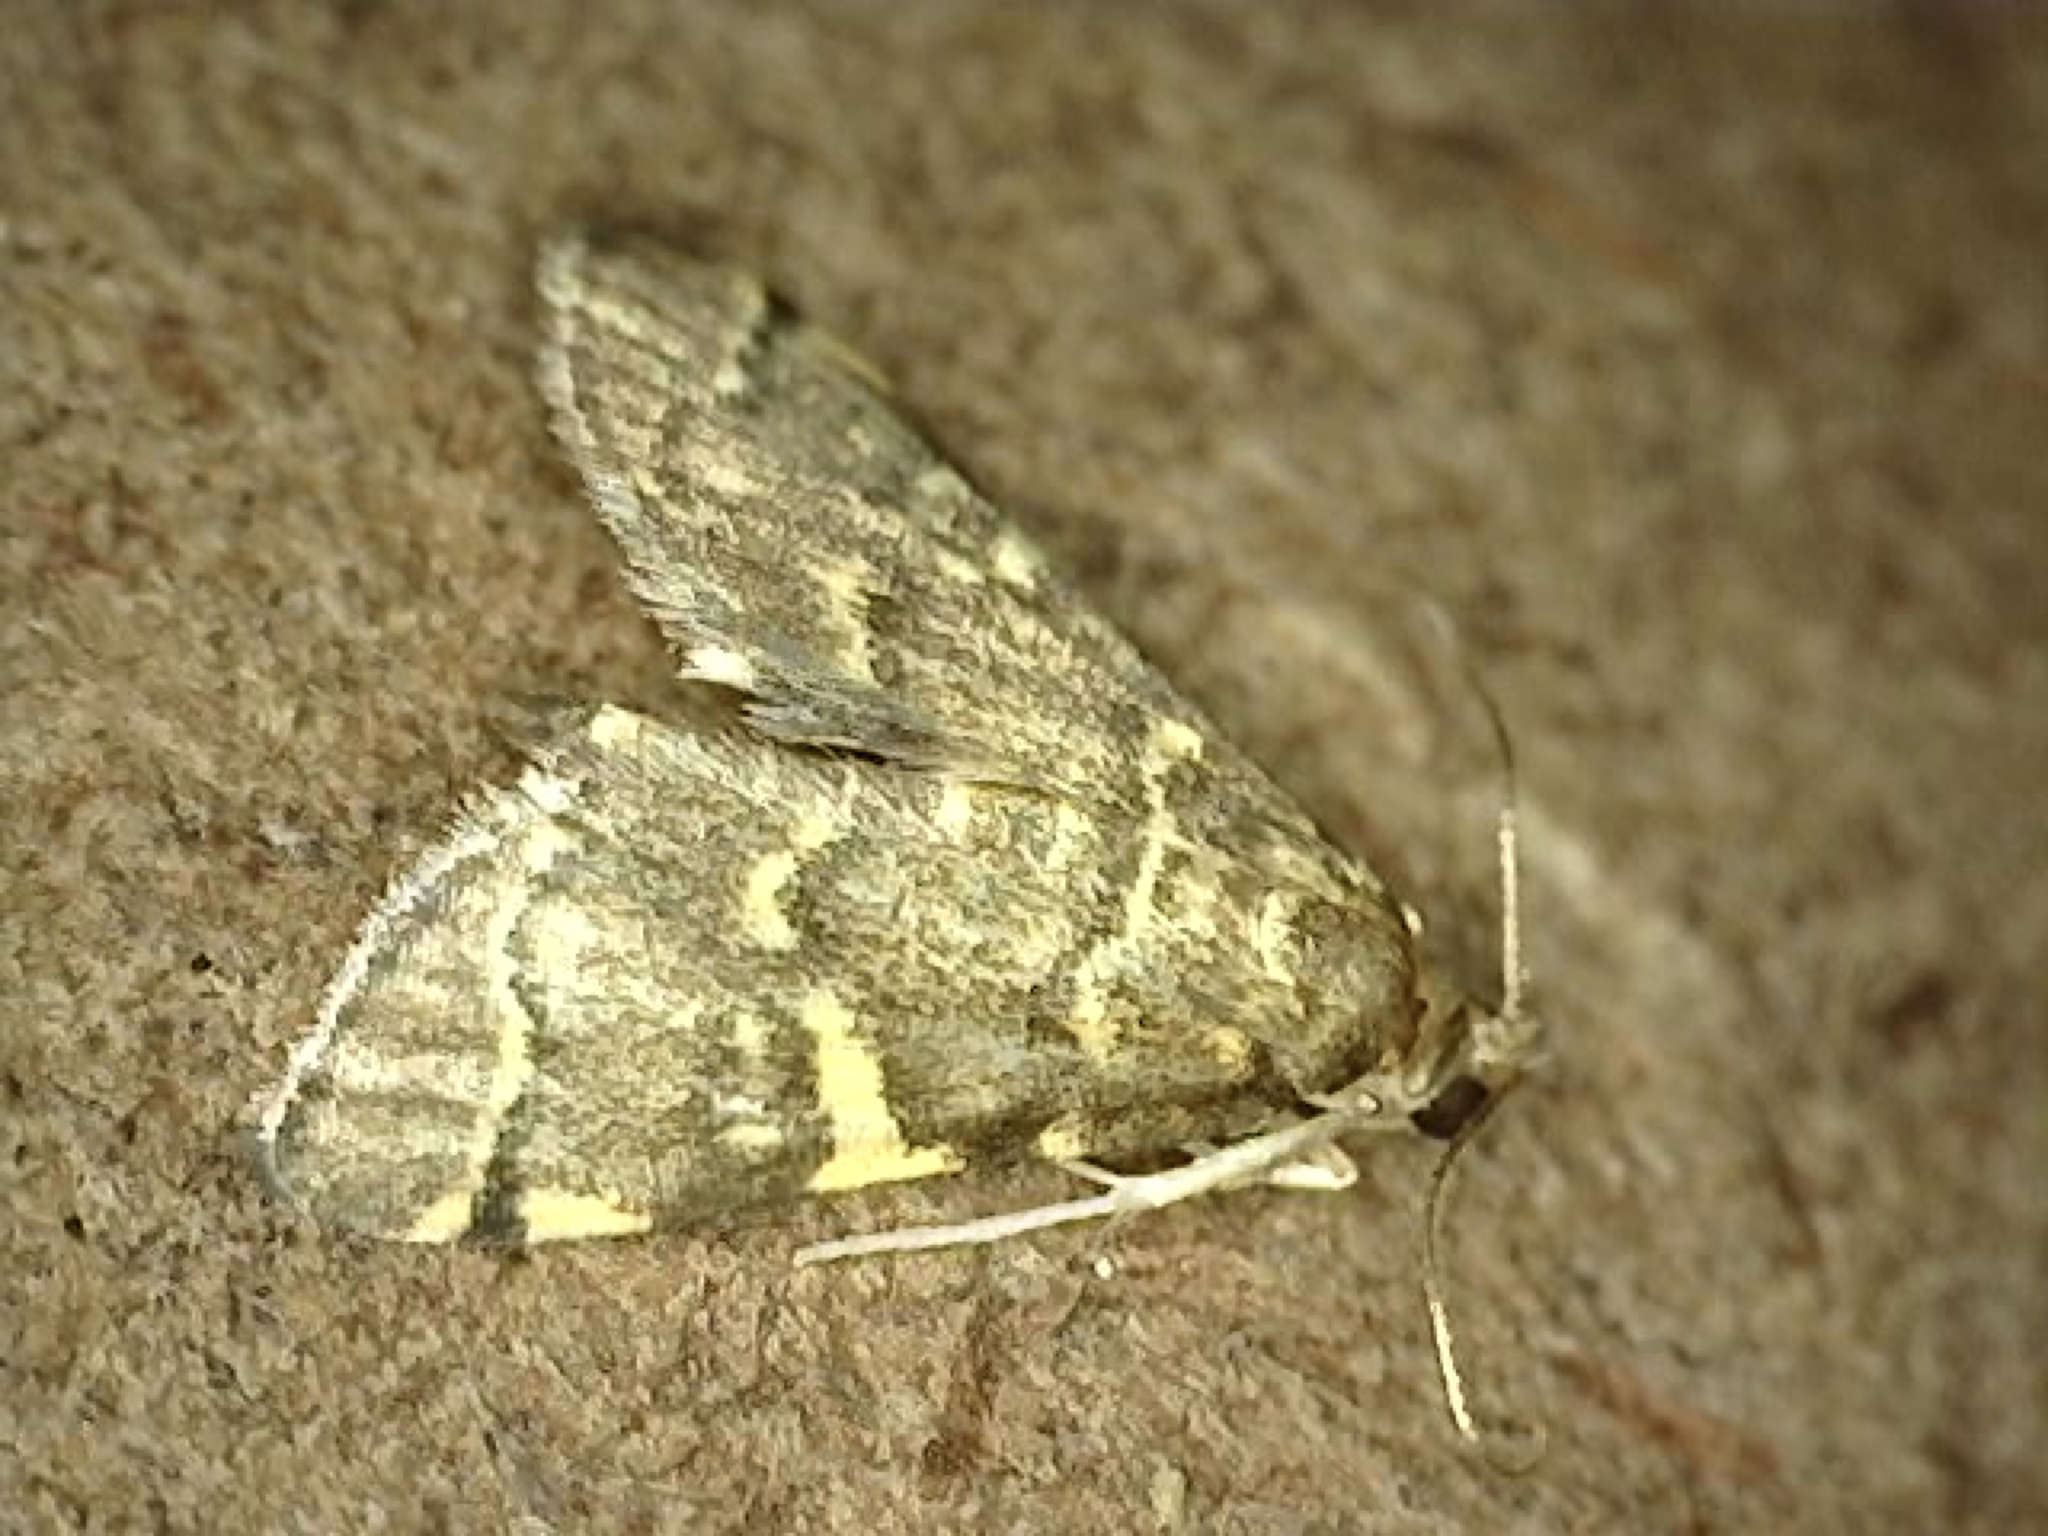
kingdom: Animalia
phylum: Arthropoda
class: Insecta
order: Lepidoptera
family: Crambidae
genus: Anageshna
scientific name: Anageshna primordialis
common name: Yellow-spotted webworm moth
